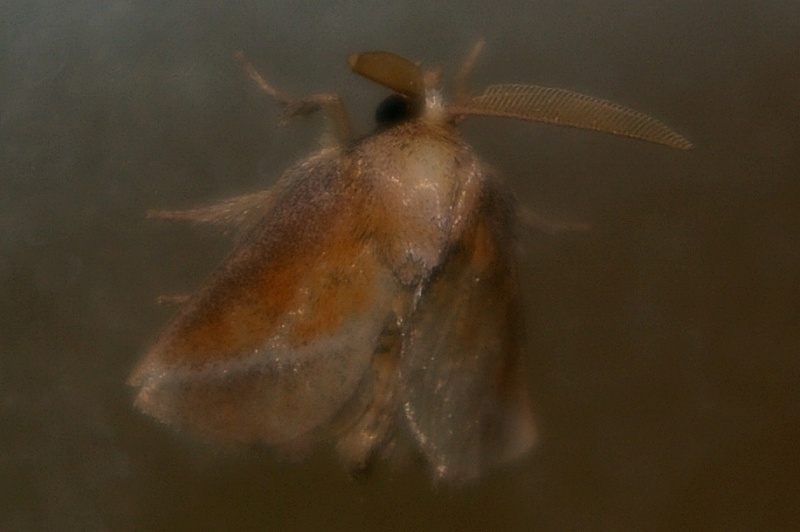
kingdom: Animalia
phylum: Arthropoda
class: Insecta
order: Lepidoptera
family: Limacodidae
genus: Oxyplax
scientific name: Oxyplax pallivitta
